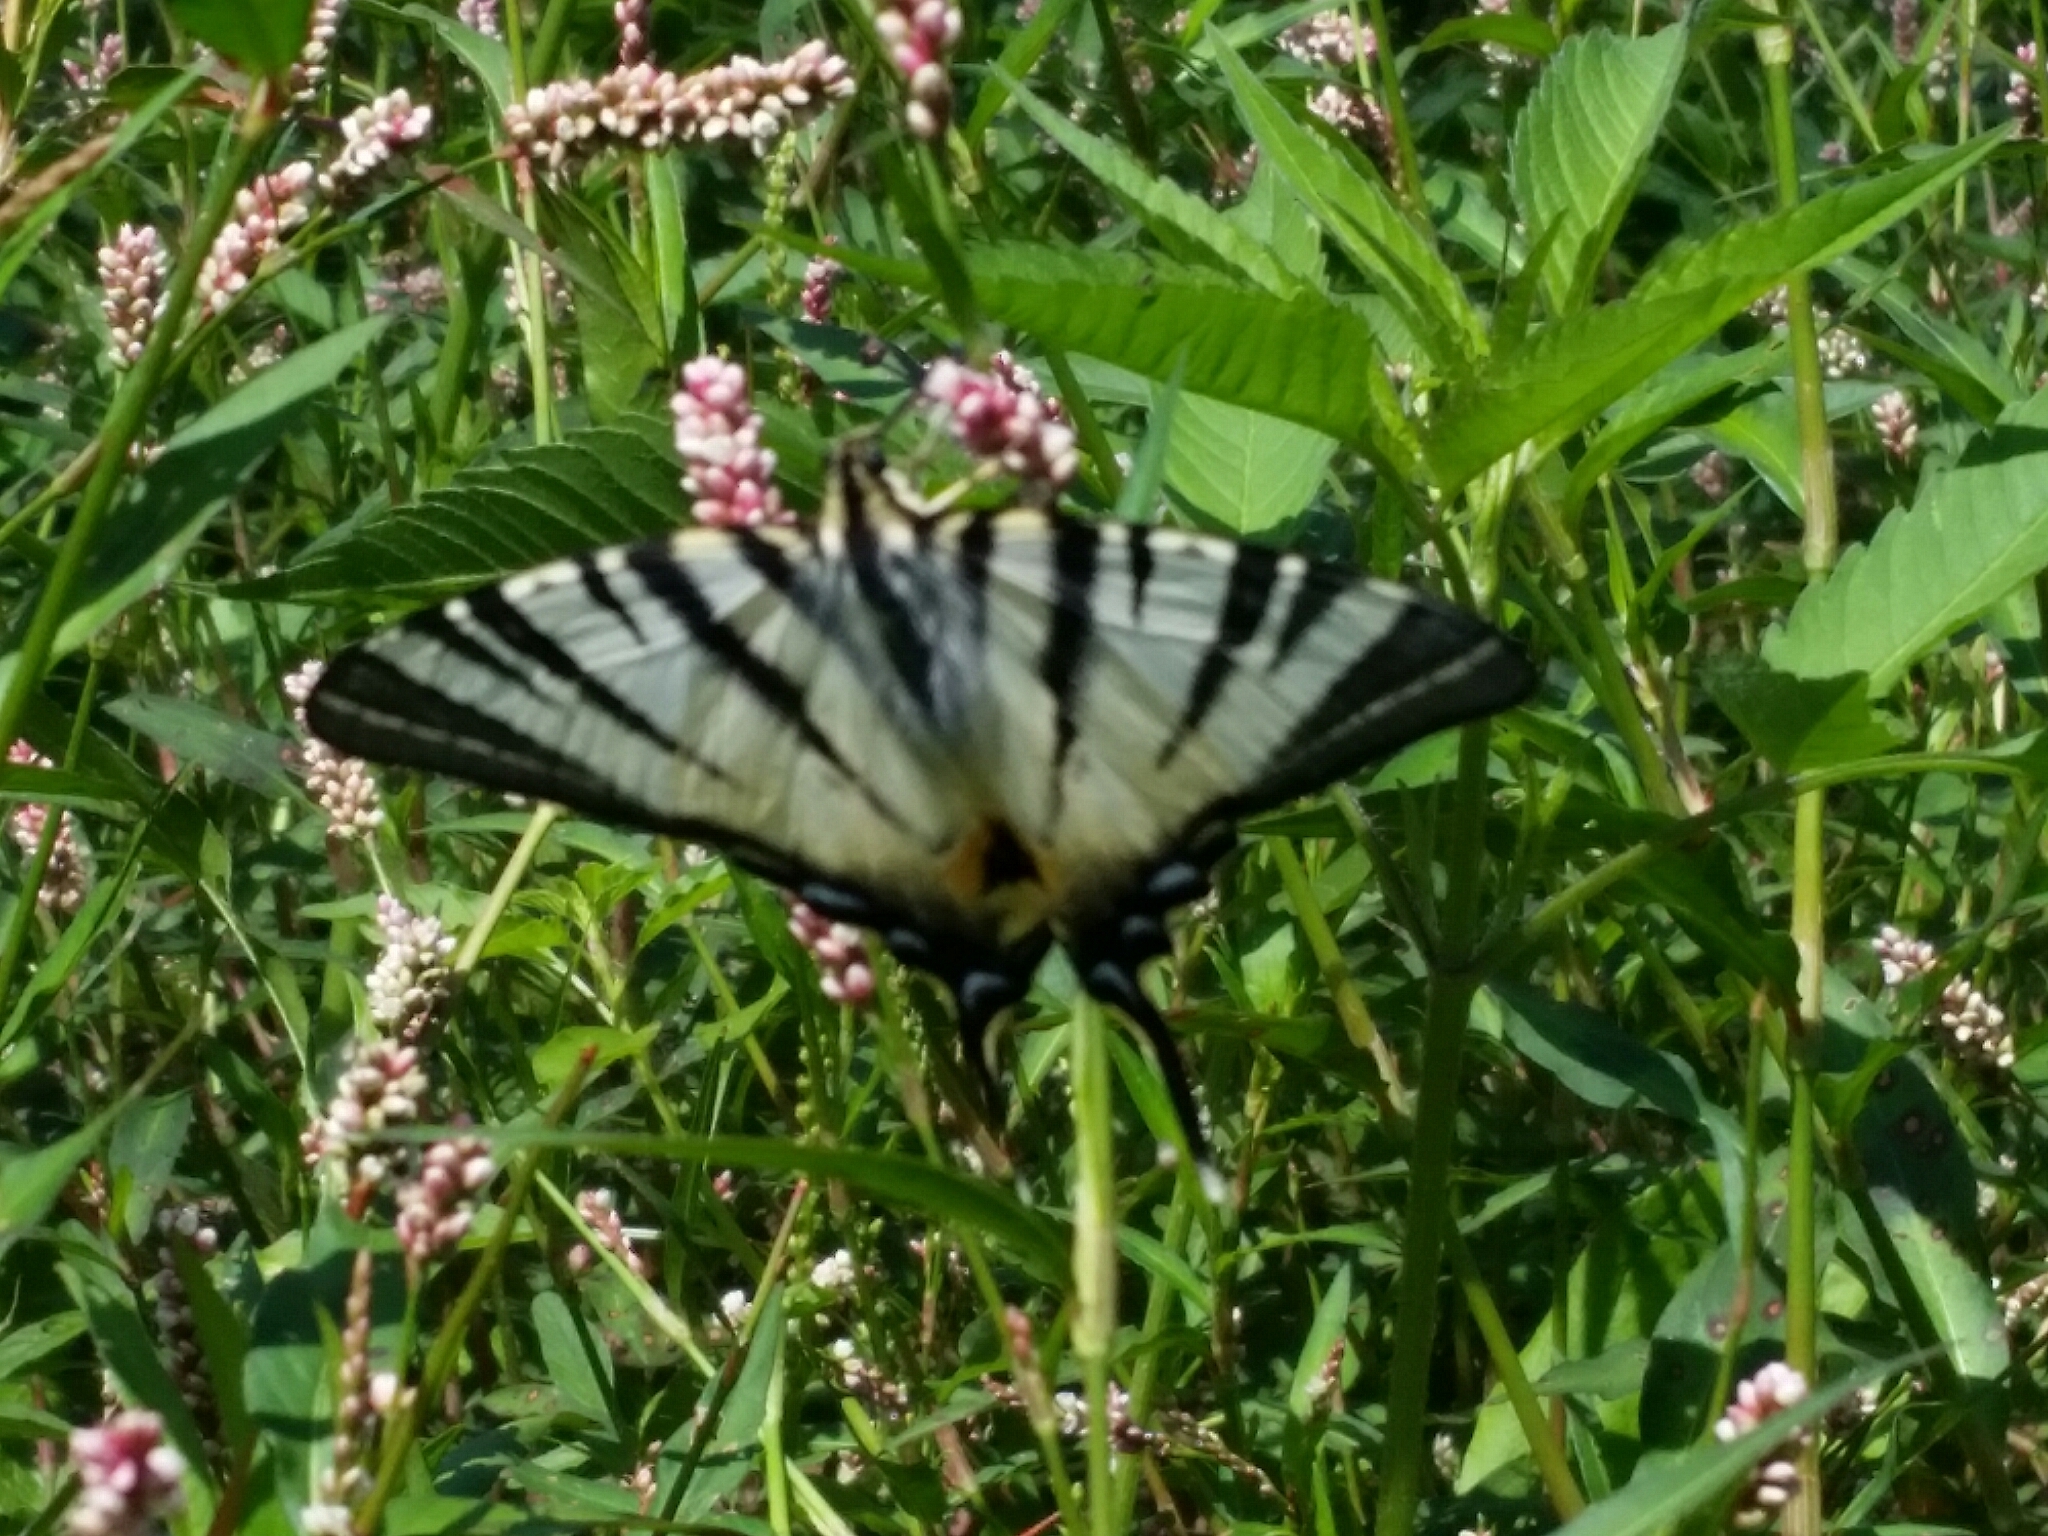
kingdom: Animalia
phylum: Arthropoda
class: Insecta
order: Lepidoptera
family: Papilionidae
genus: Iphiclides
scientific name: Iphiclides podalirius
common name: Scarce swallowtail
